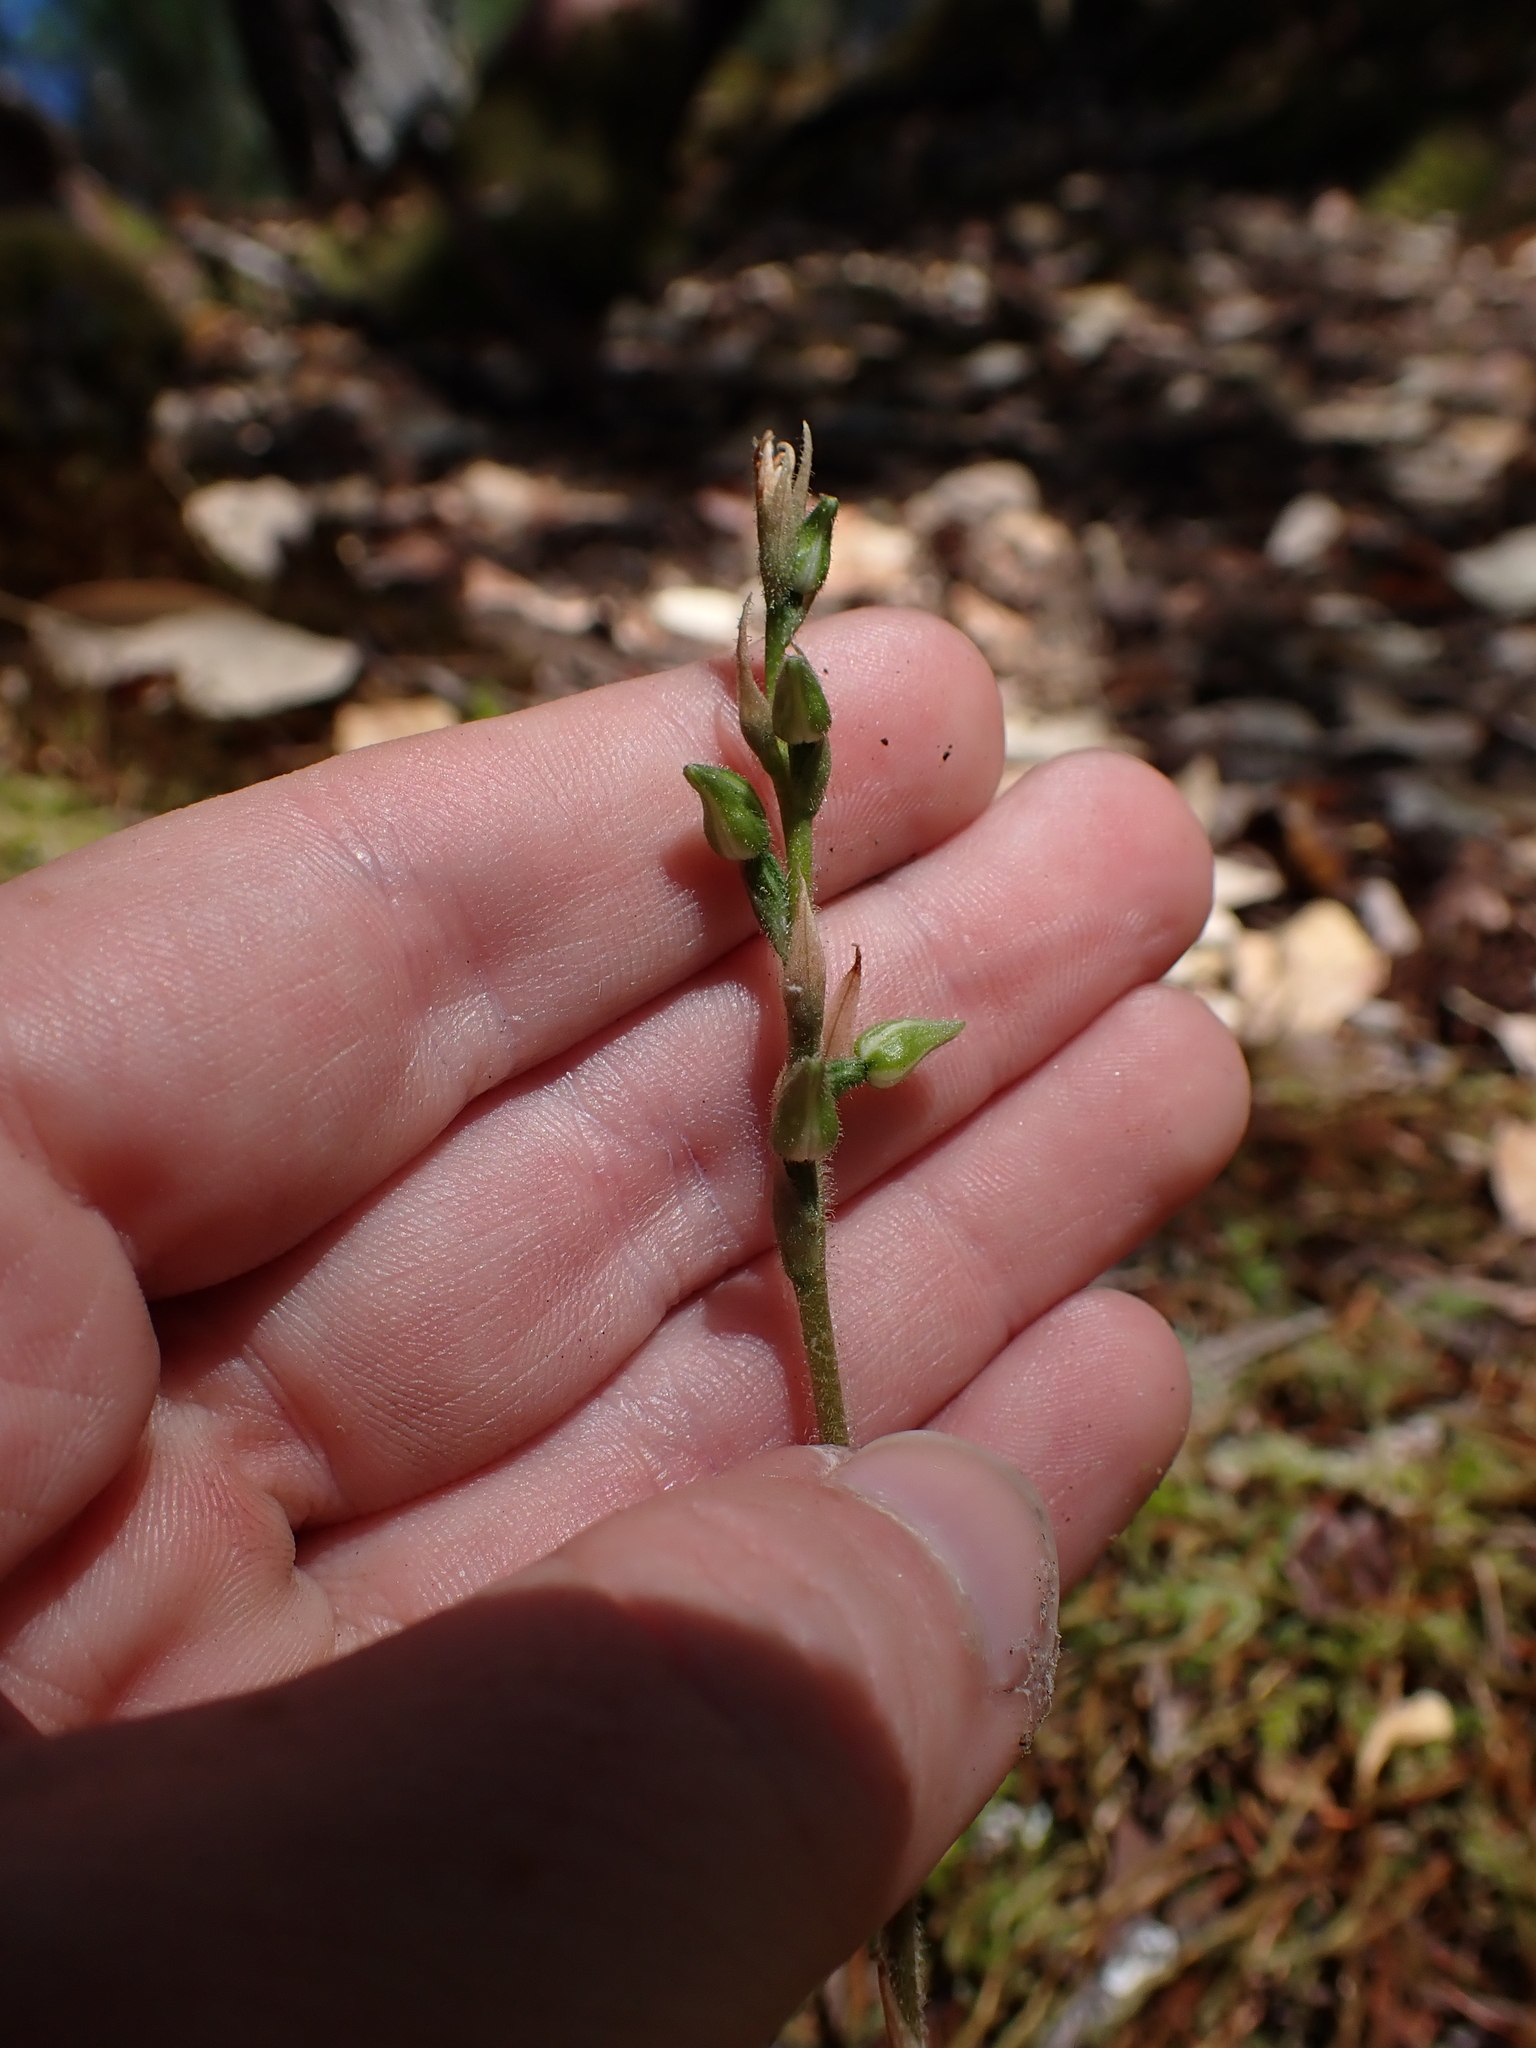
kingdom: Plantae
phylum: Tracheophyta
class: Liliopsida
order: Asparagales
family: Orchidaceae
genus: Goodyera
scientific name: Goodyera oblongifolia
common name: Giant rattlesnake-plantain
